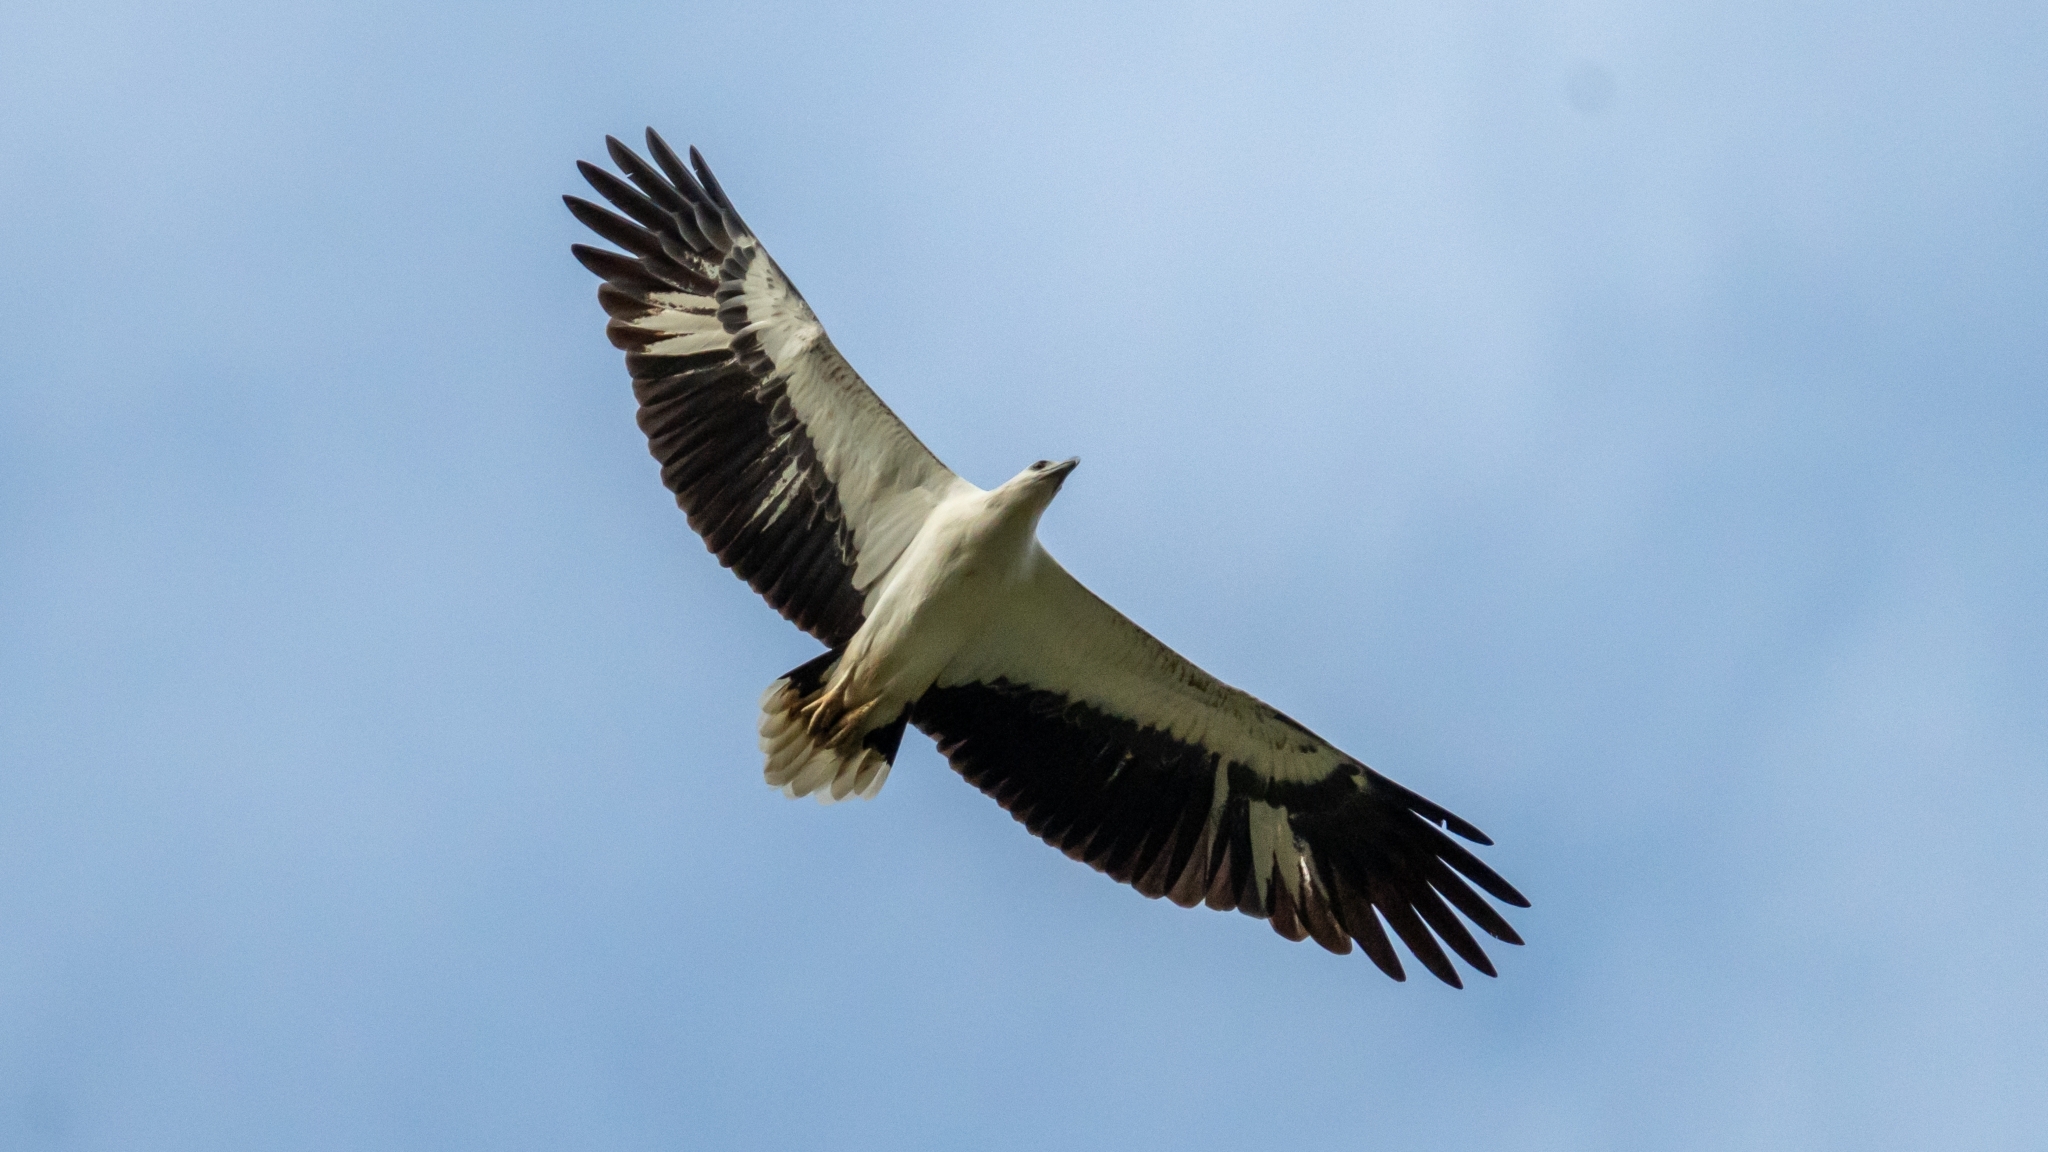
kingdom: Animalia
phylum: Chordata
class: Aves
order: Accipitriformes
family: Accipitridae
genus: Haliaeetus
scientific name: Haliaeetus leucogaster
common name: White-bellied sea eagle
